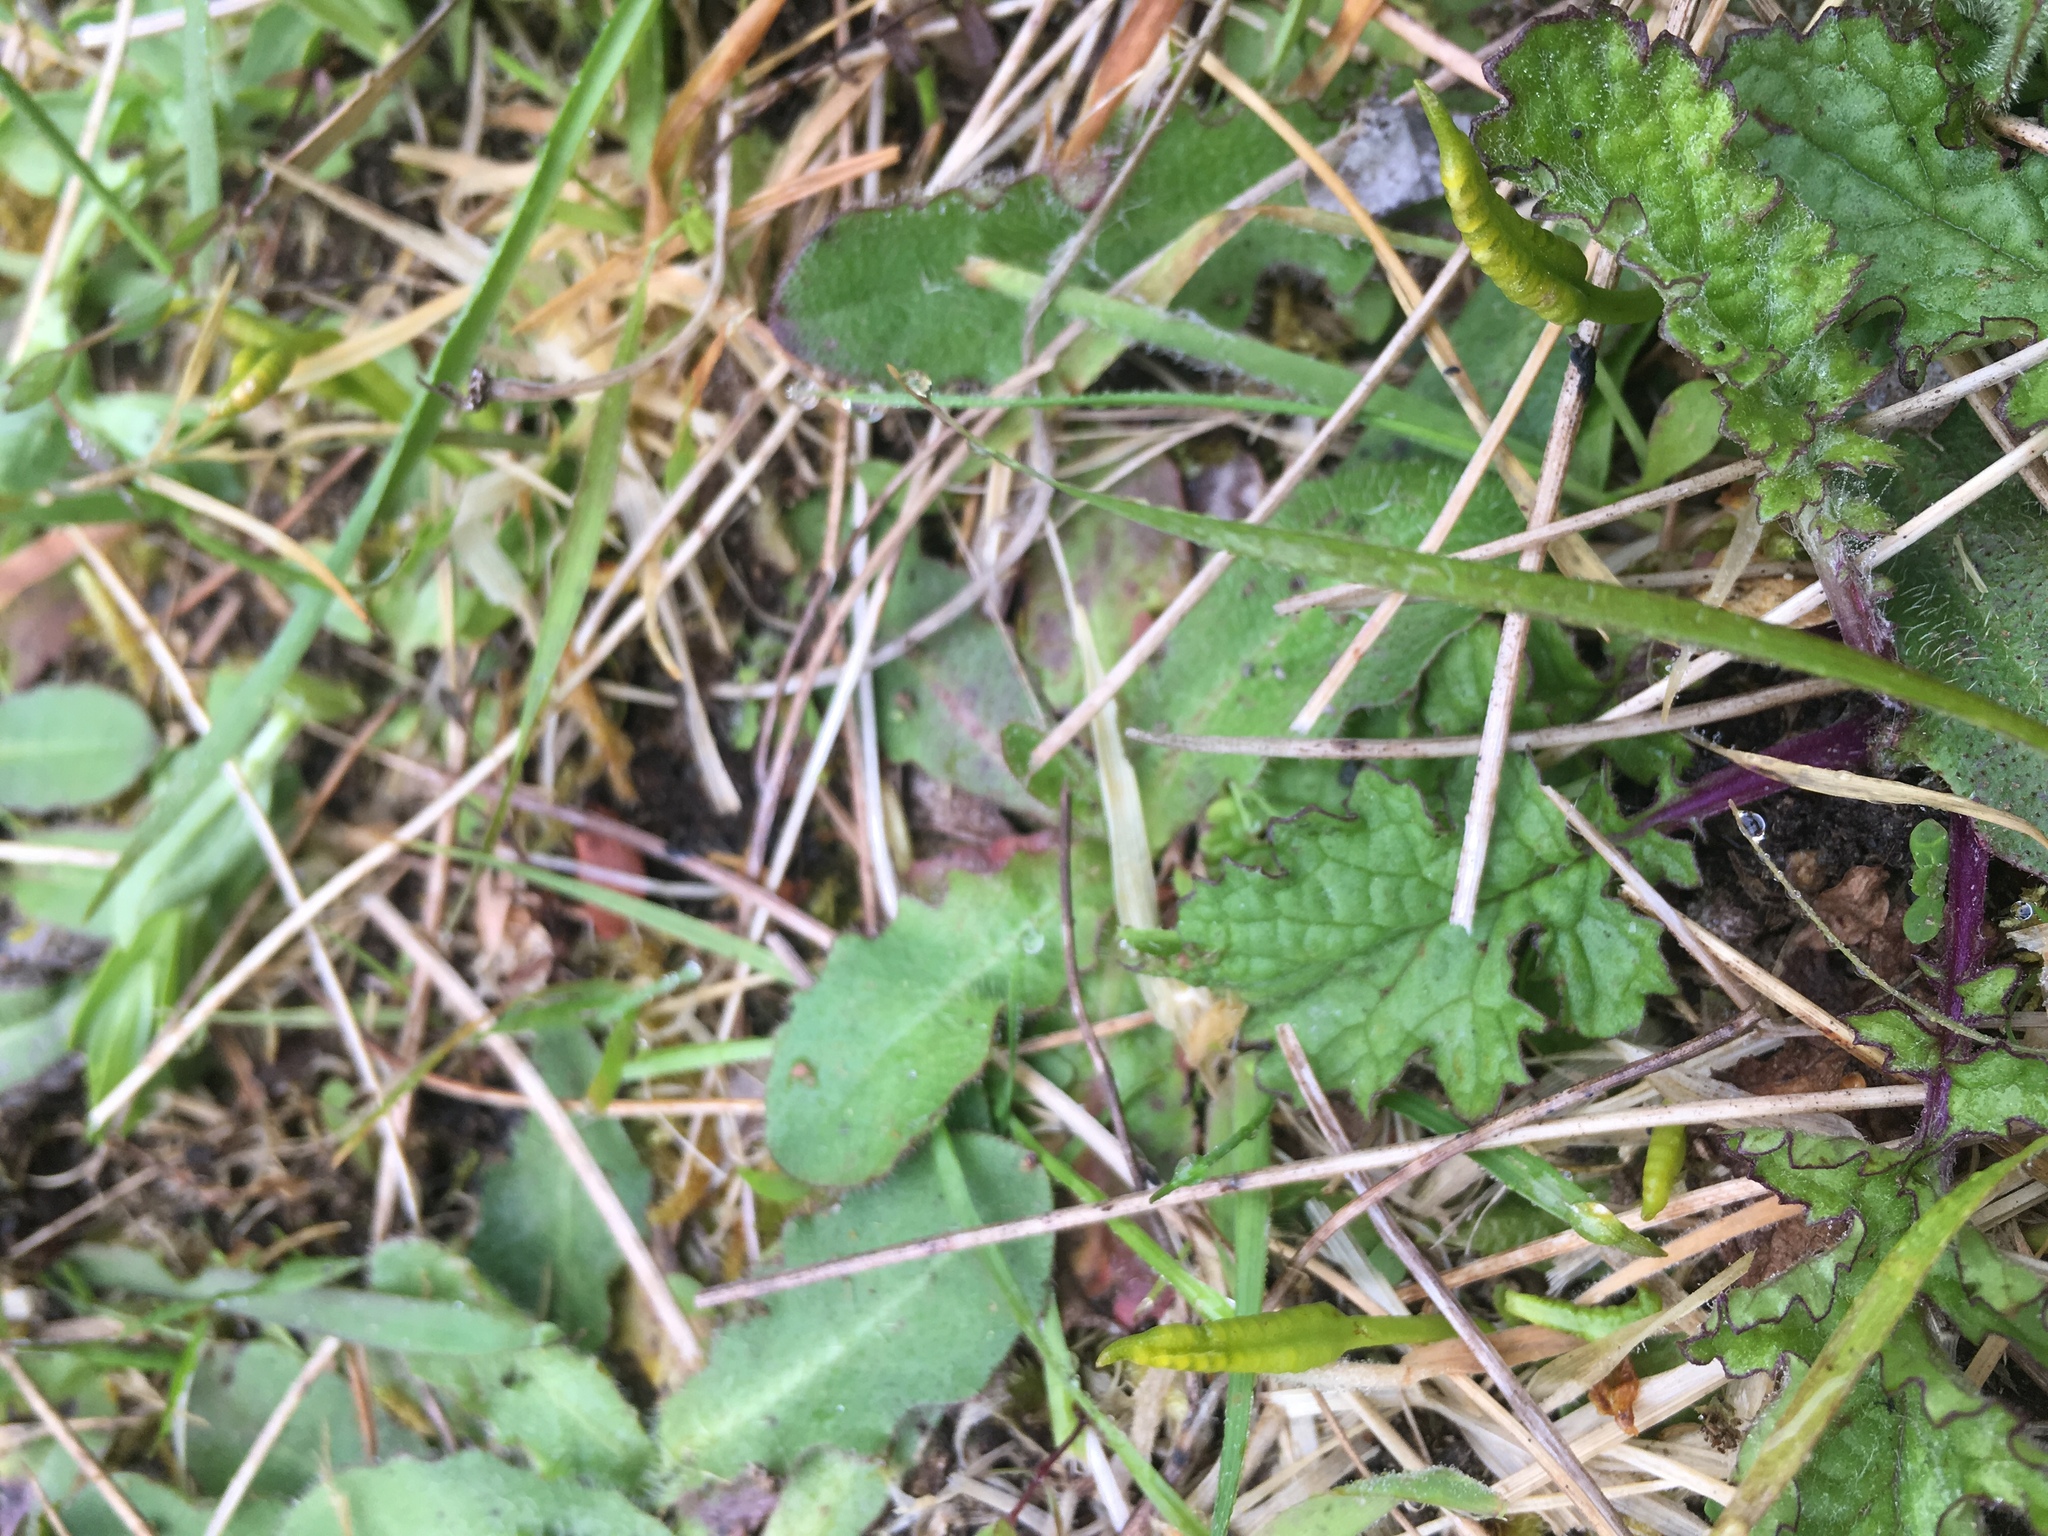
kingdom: Plantae
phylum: Tracheophyta
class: Polypodiopsida
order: Ophioglossales
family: Ophioglossaceae
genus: Ophioglossum
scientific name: Ophioglossum coriaceum
